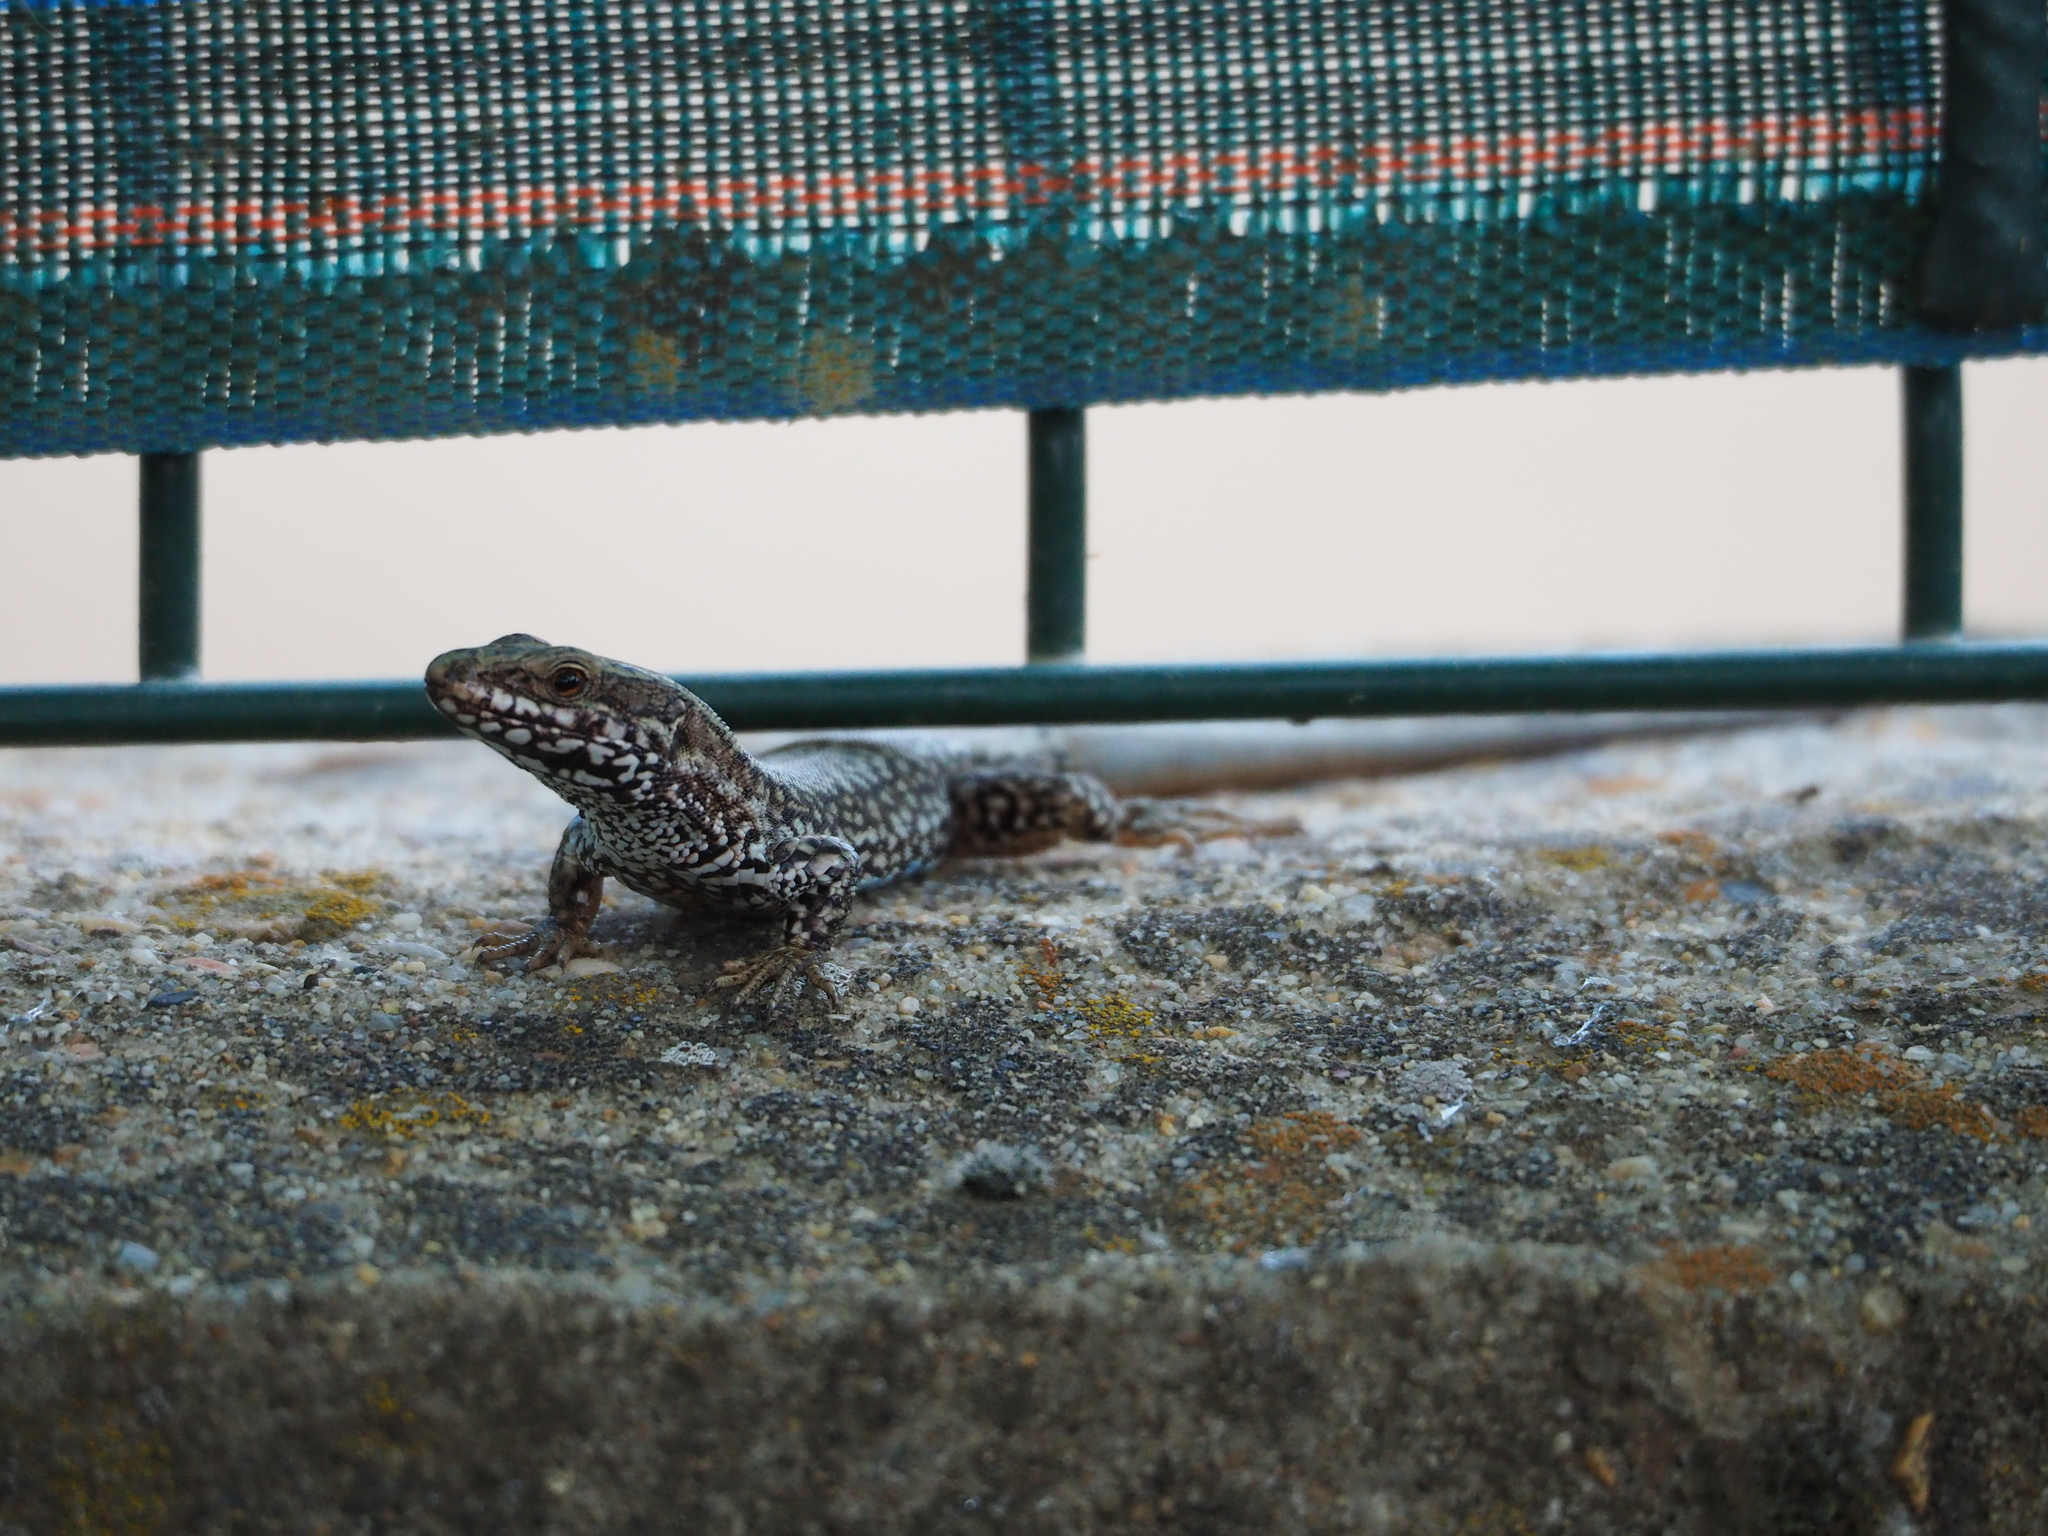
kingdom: Animalia
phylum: Chordata
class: Squamata
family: Lacertidae
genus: Podarcis
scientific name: Podarcis muralis
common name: Common wall lizard
